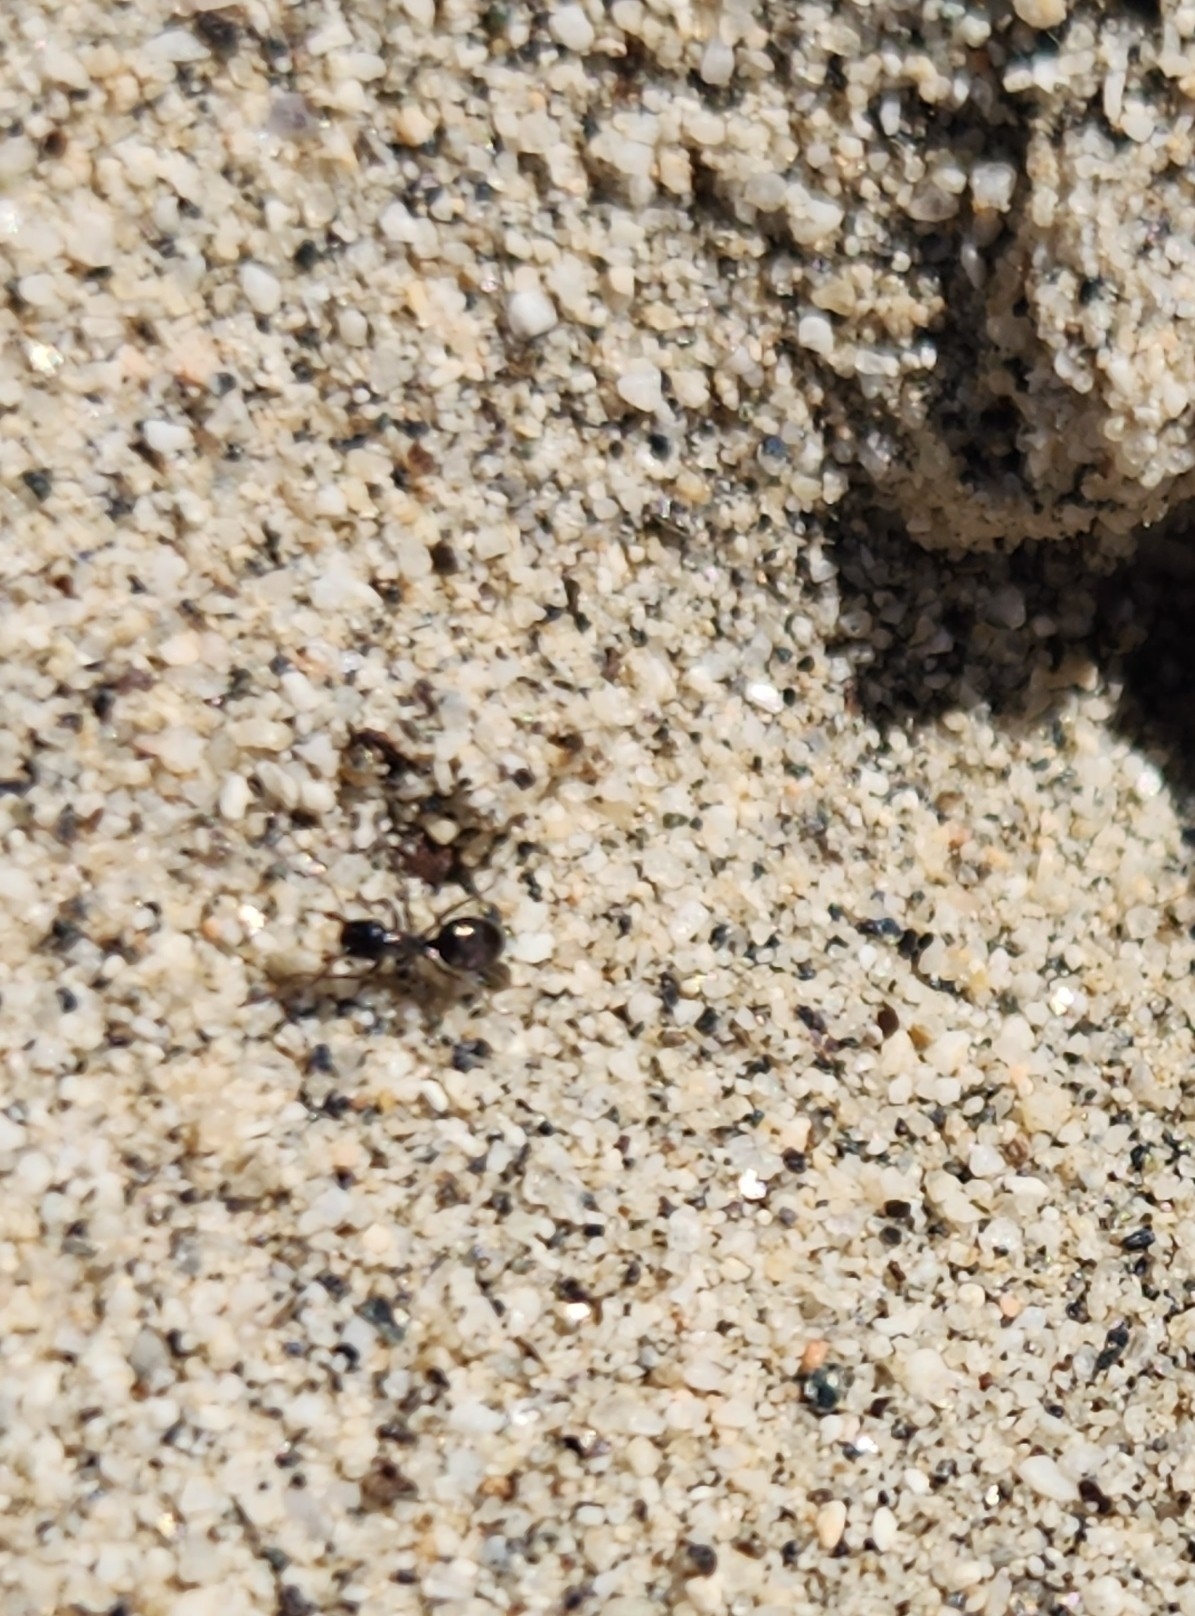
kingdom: Animalia
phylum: Arthropoda
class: Insecta
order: Hymenoptera
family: Formicidae
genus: Messor
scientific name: Messor pergandei
